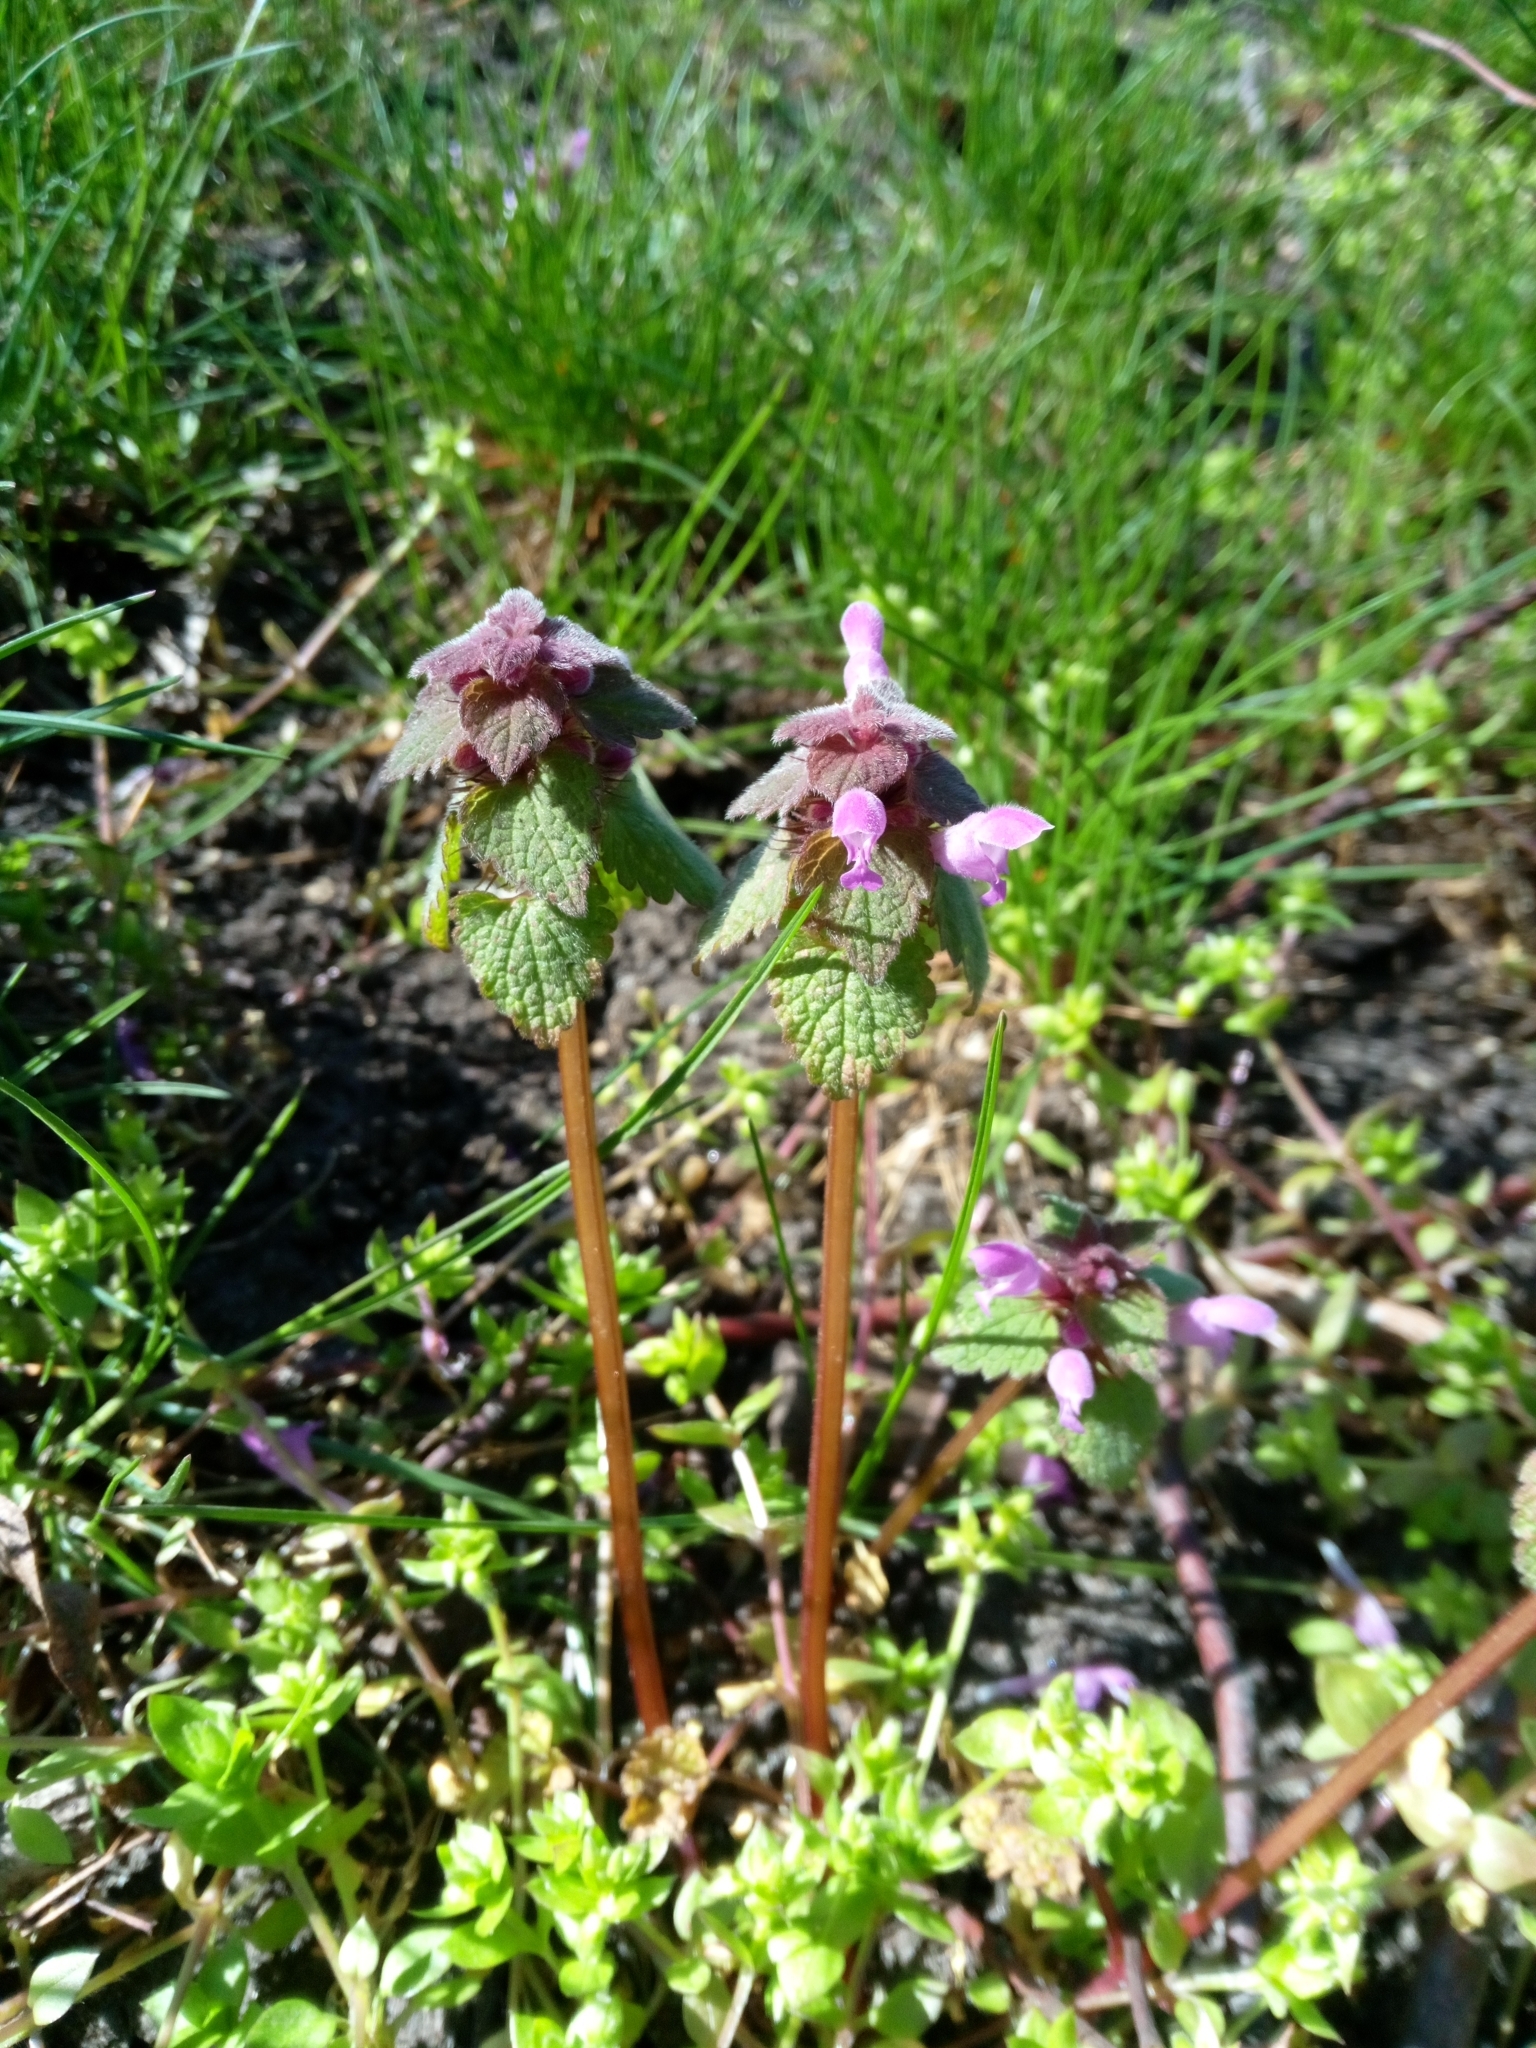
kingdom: Plantae
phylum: Tracheophyta
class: Magnoliopsida
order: Lamiales
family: Lamiaceae
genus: Lamium
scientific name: Lamium purpureum
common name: Red dead-nettle
